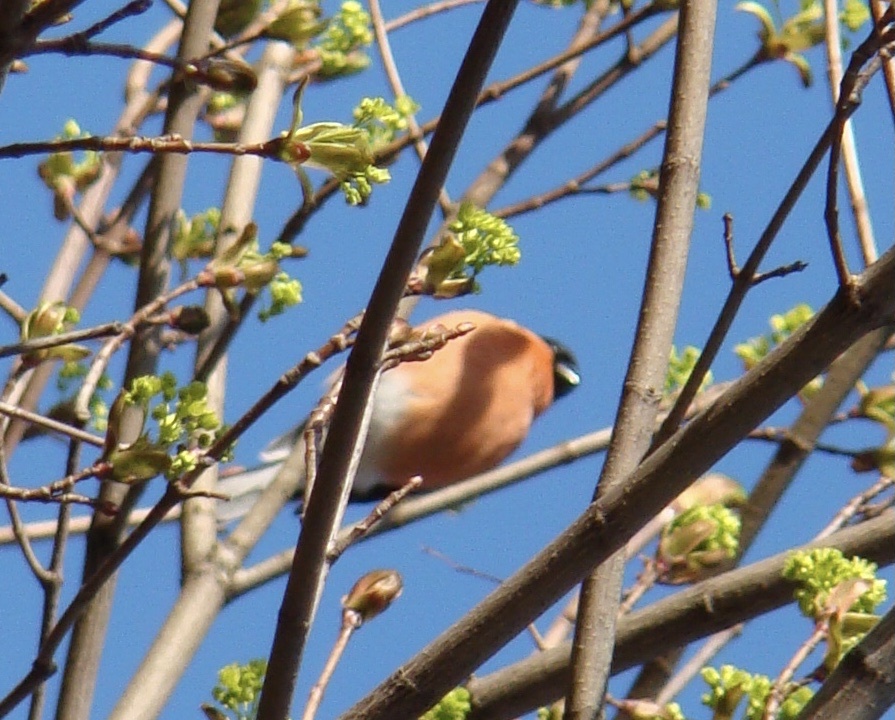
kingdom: Animalia
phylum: Chordata
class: Aves
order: Passeriformes
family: Fringillidae
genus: Pyrrhula
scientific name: Pyrrhula pyrrhula
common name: Eurasian bullfinch
